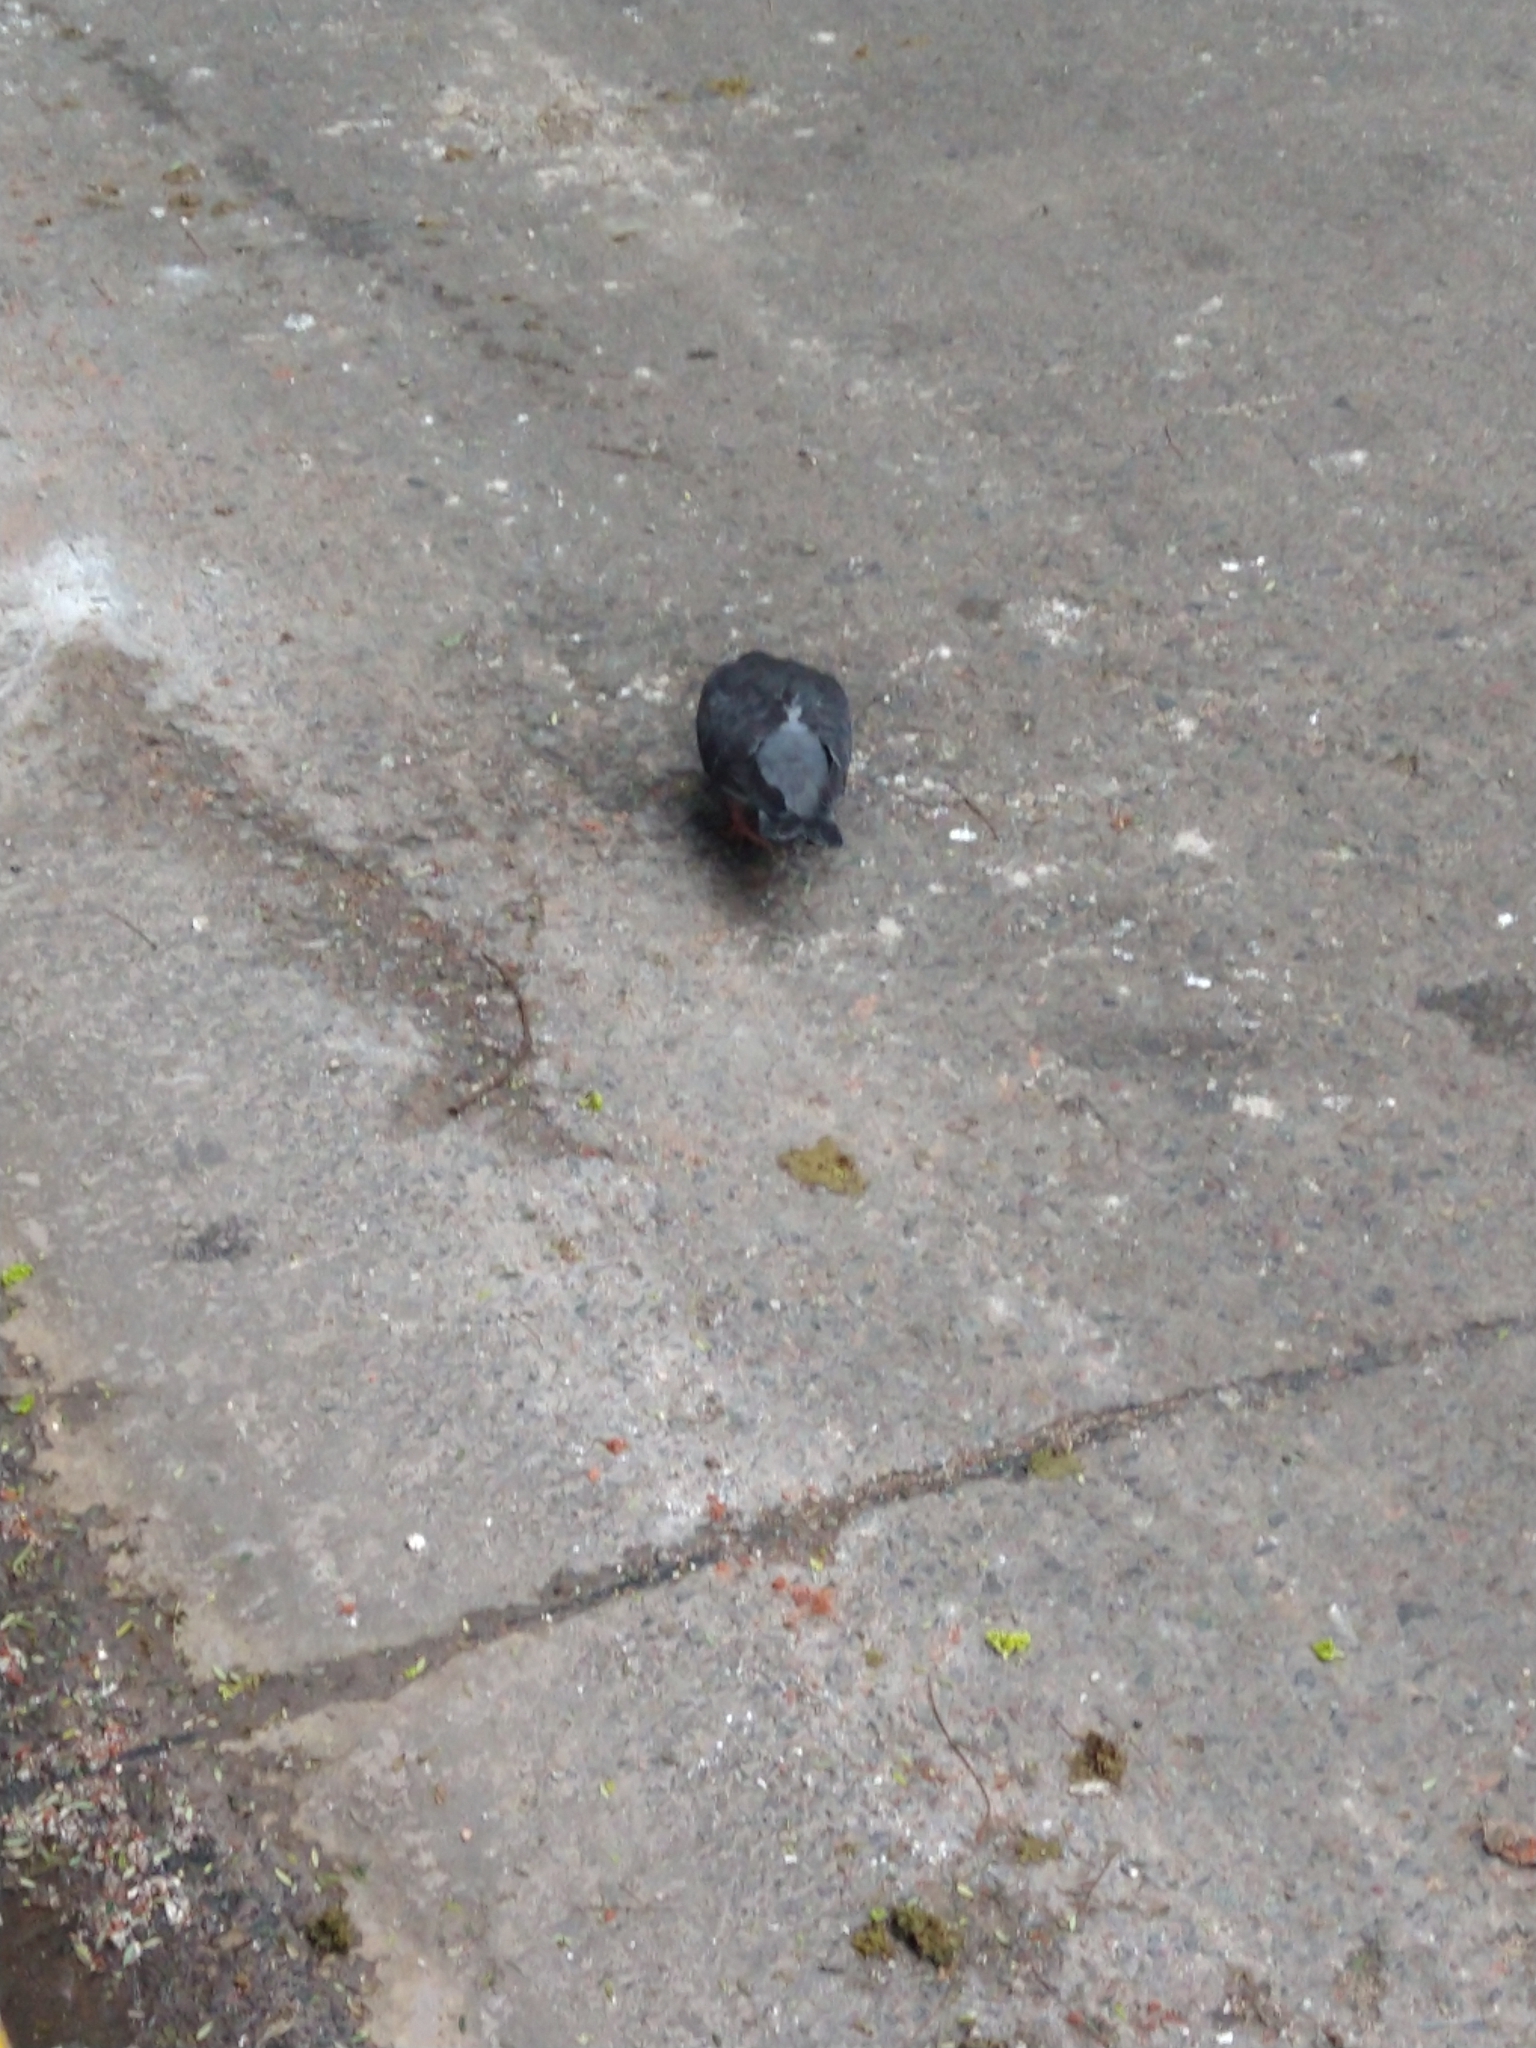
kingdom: Animalia
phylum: Chordata
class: Aves
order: Columbiformes
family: Columbidae
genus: Columba
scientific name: Columba livia
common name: Rock pigeon
